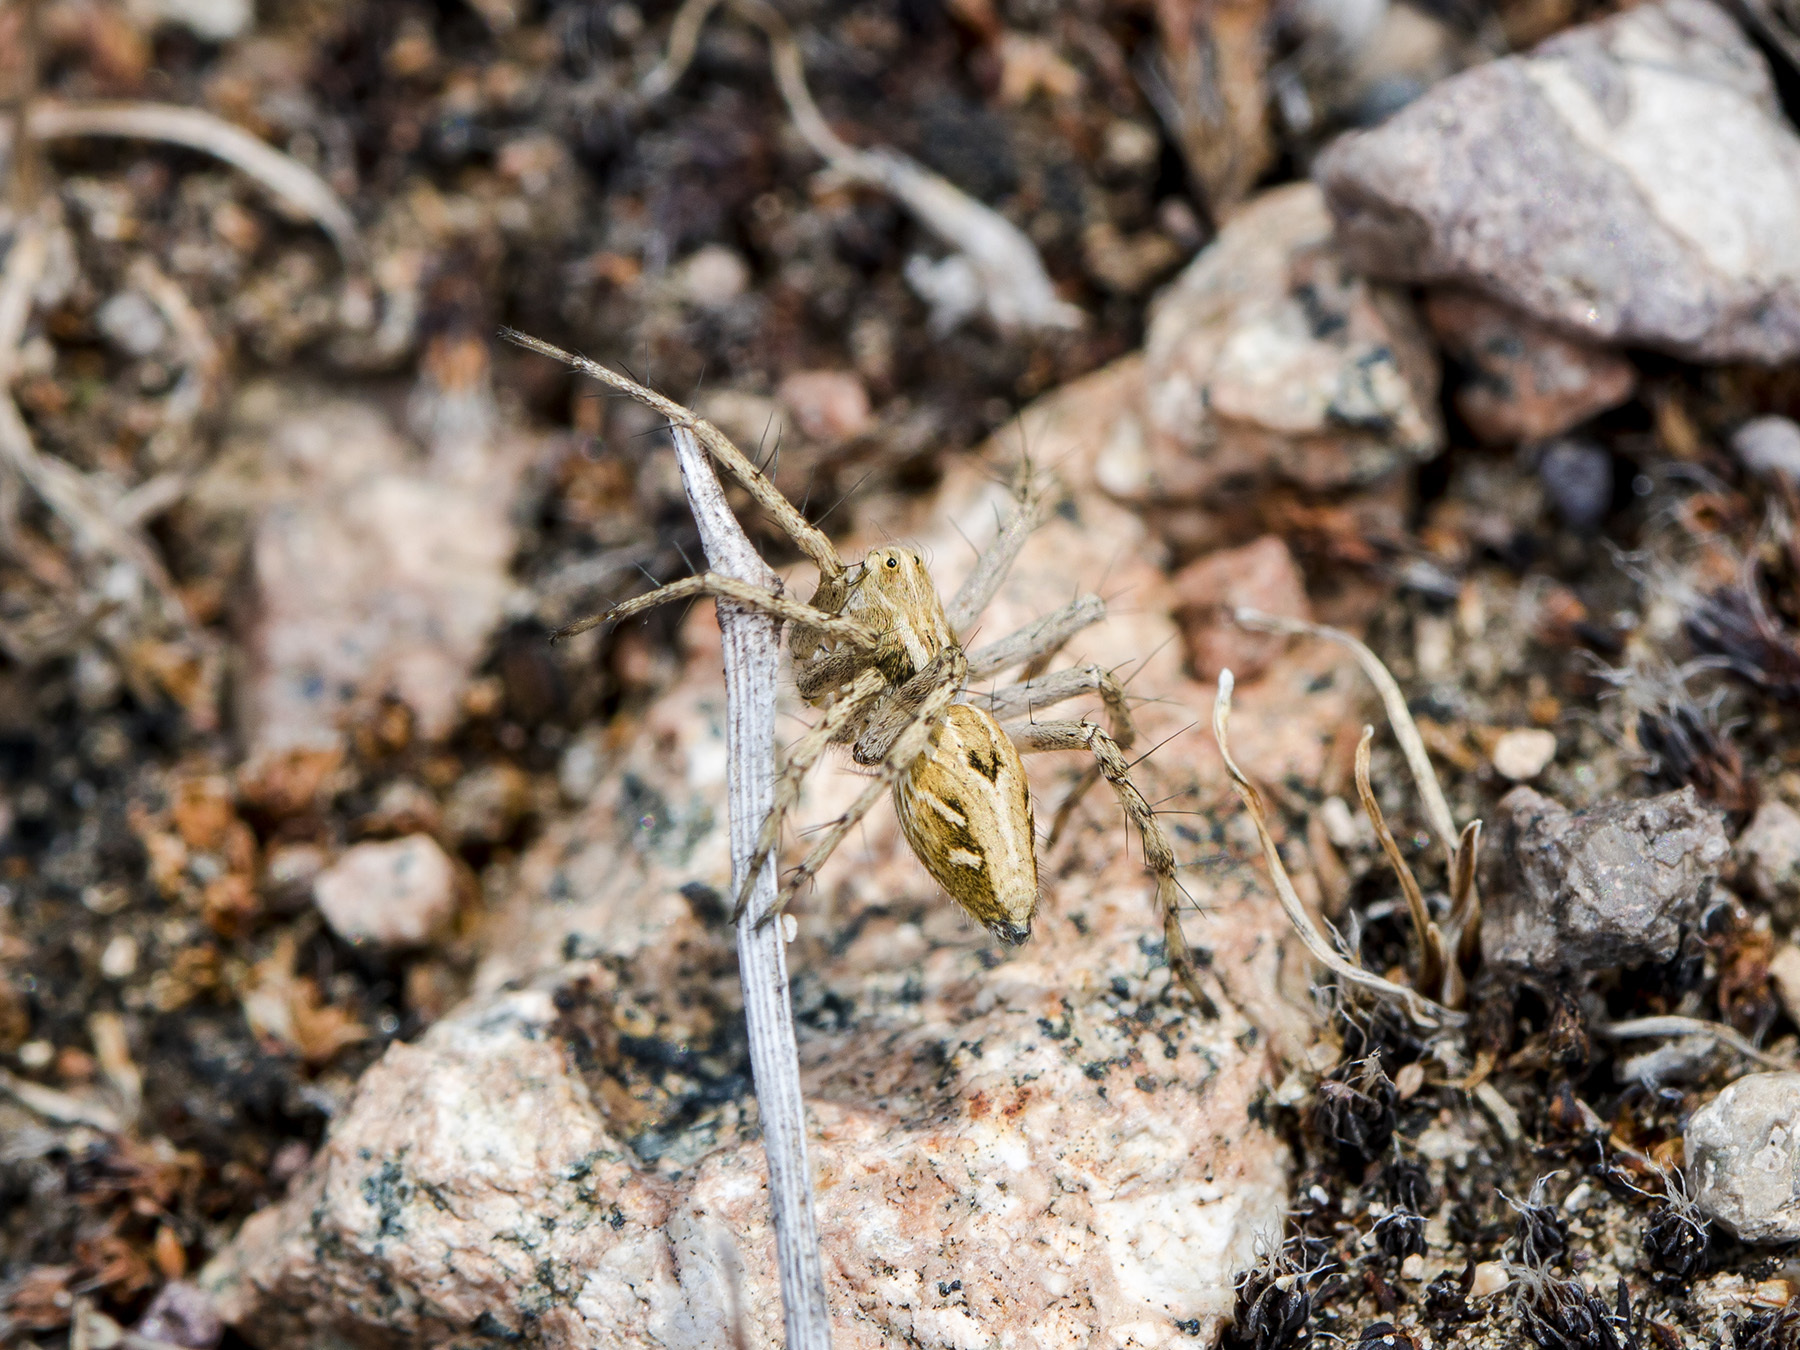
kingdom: Animalia
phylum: Arthropoda
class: Arachnida
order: Araneae
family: Oxyopidae
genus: Oxyopes
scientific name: Oxyopes takobius
